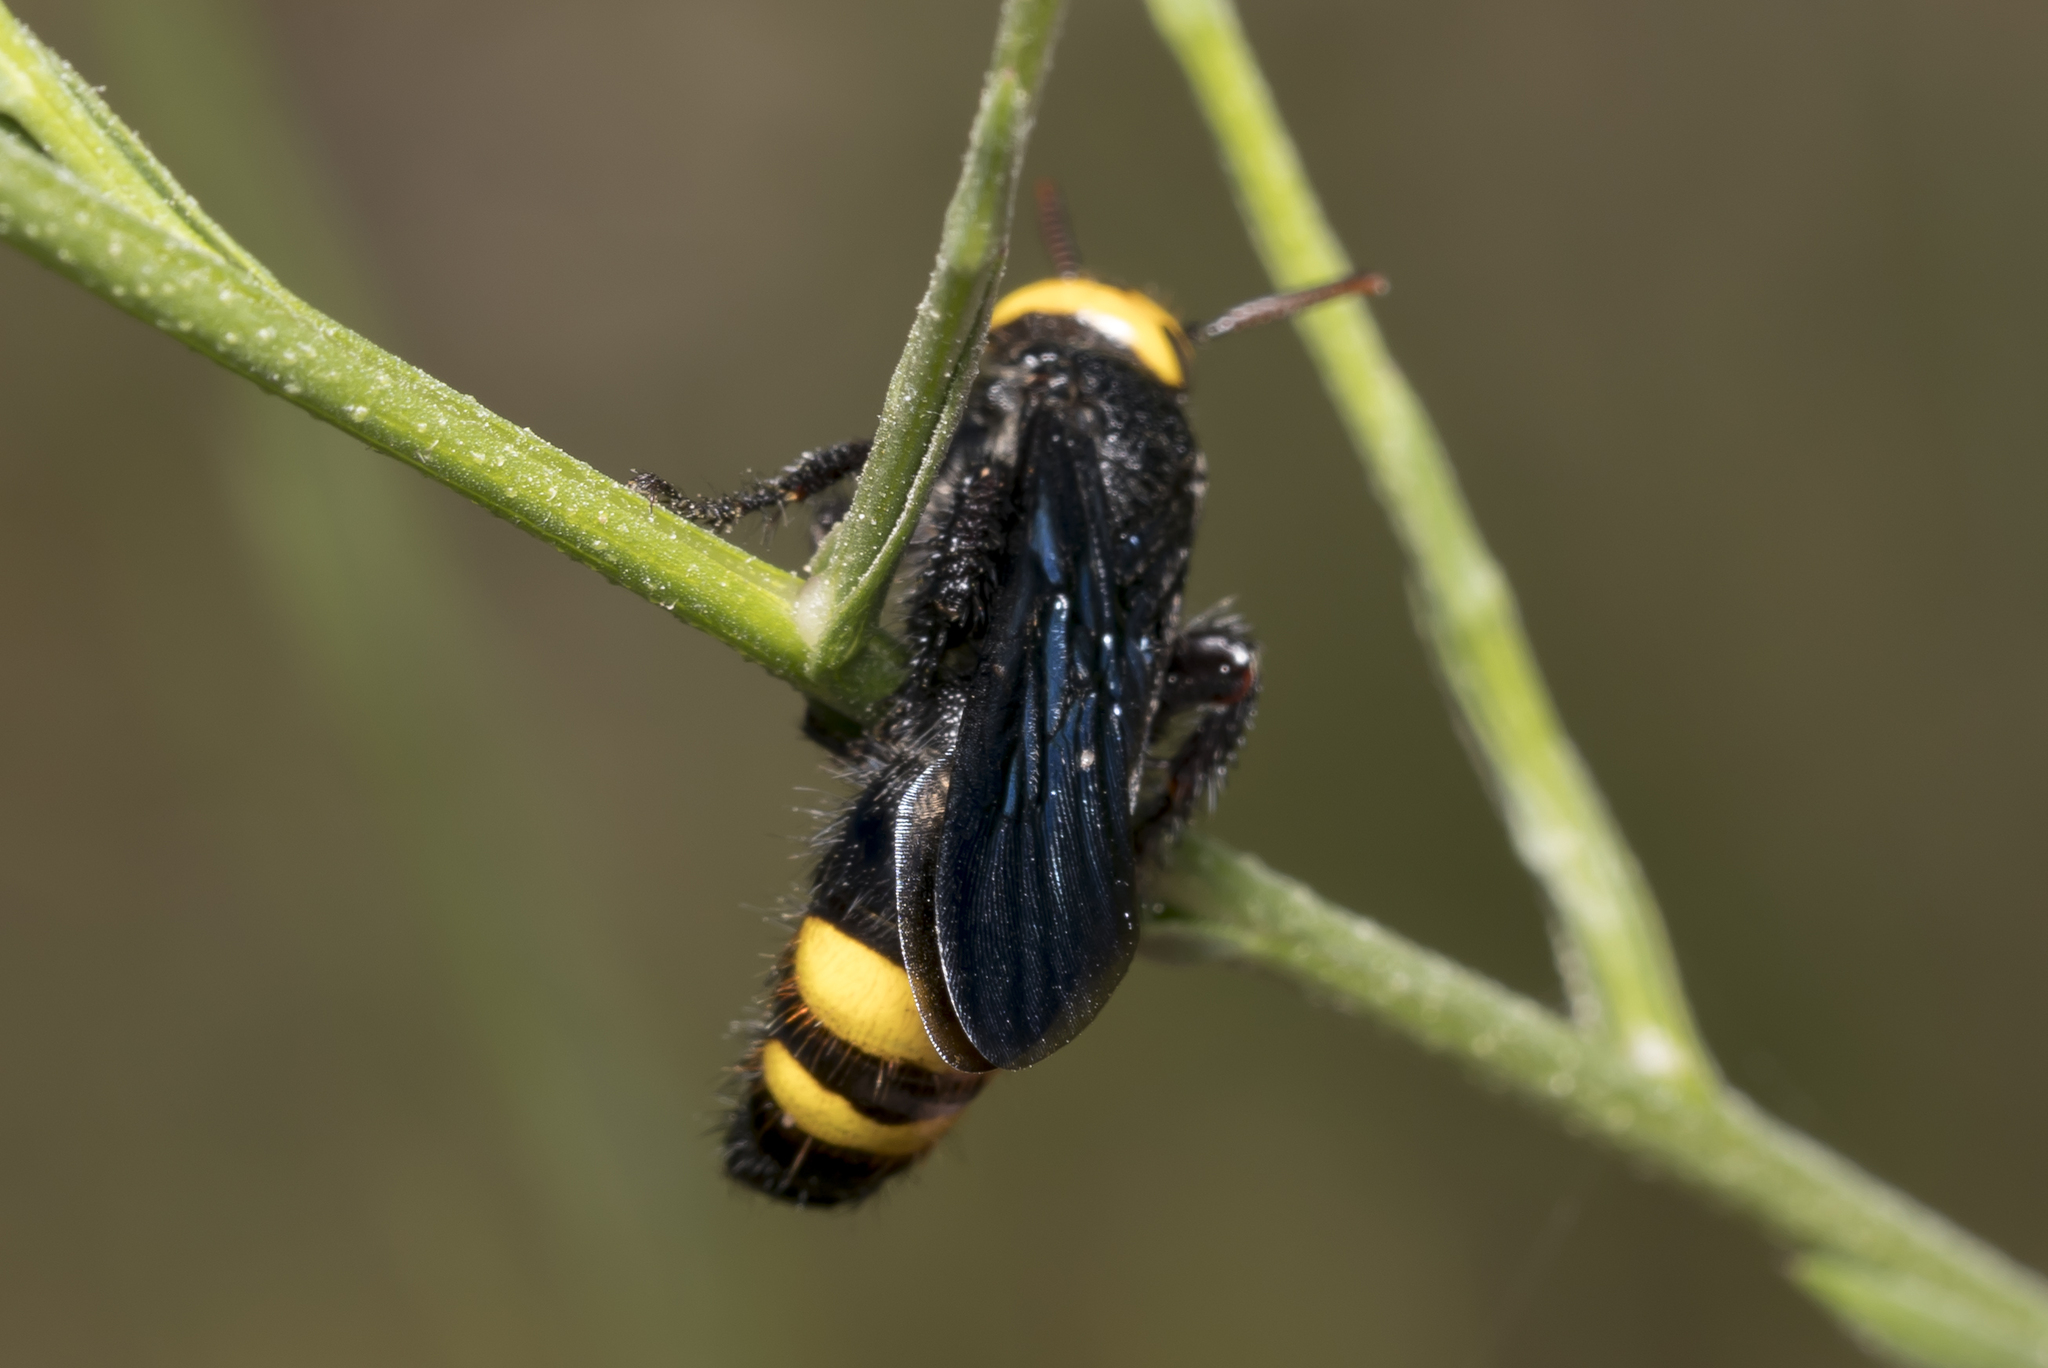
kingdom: Animalia
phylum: Arthropoda
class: Insecta
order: Hymenoptera
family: Scoliidae
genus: Scolia
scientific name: Scolia anatoliae
